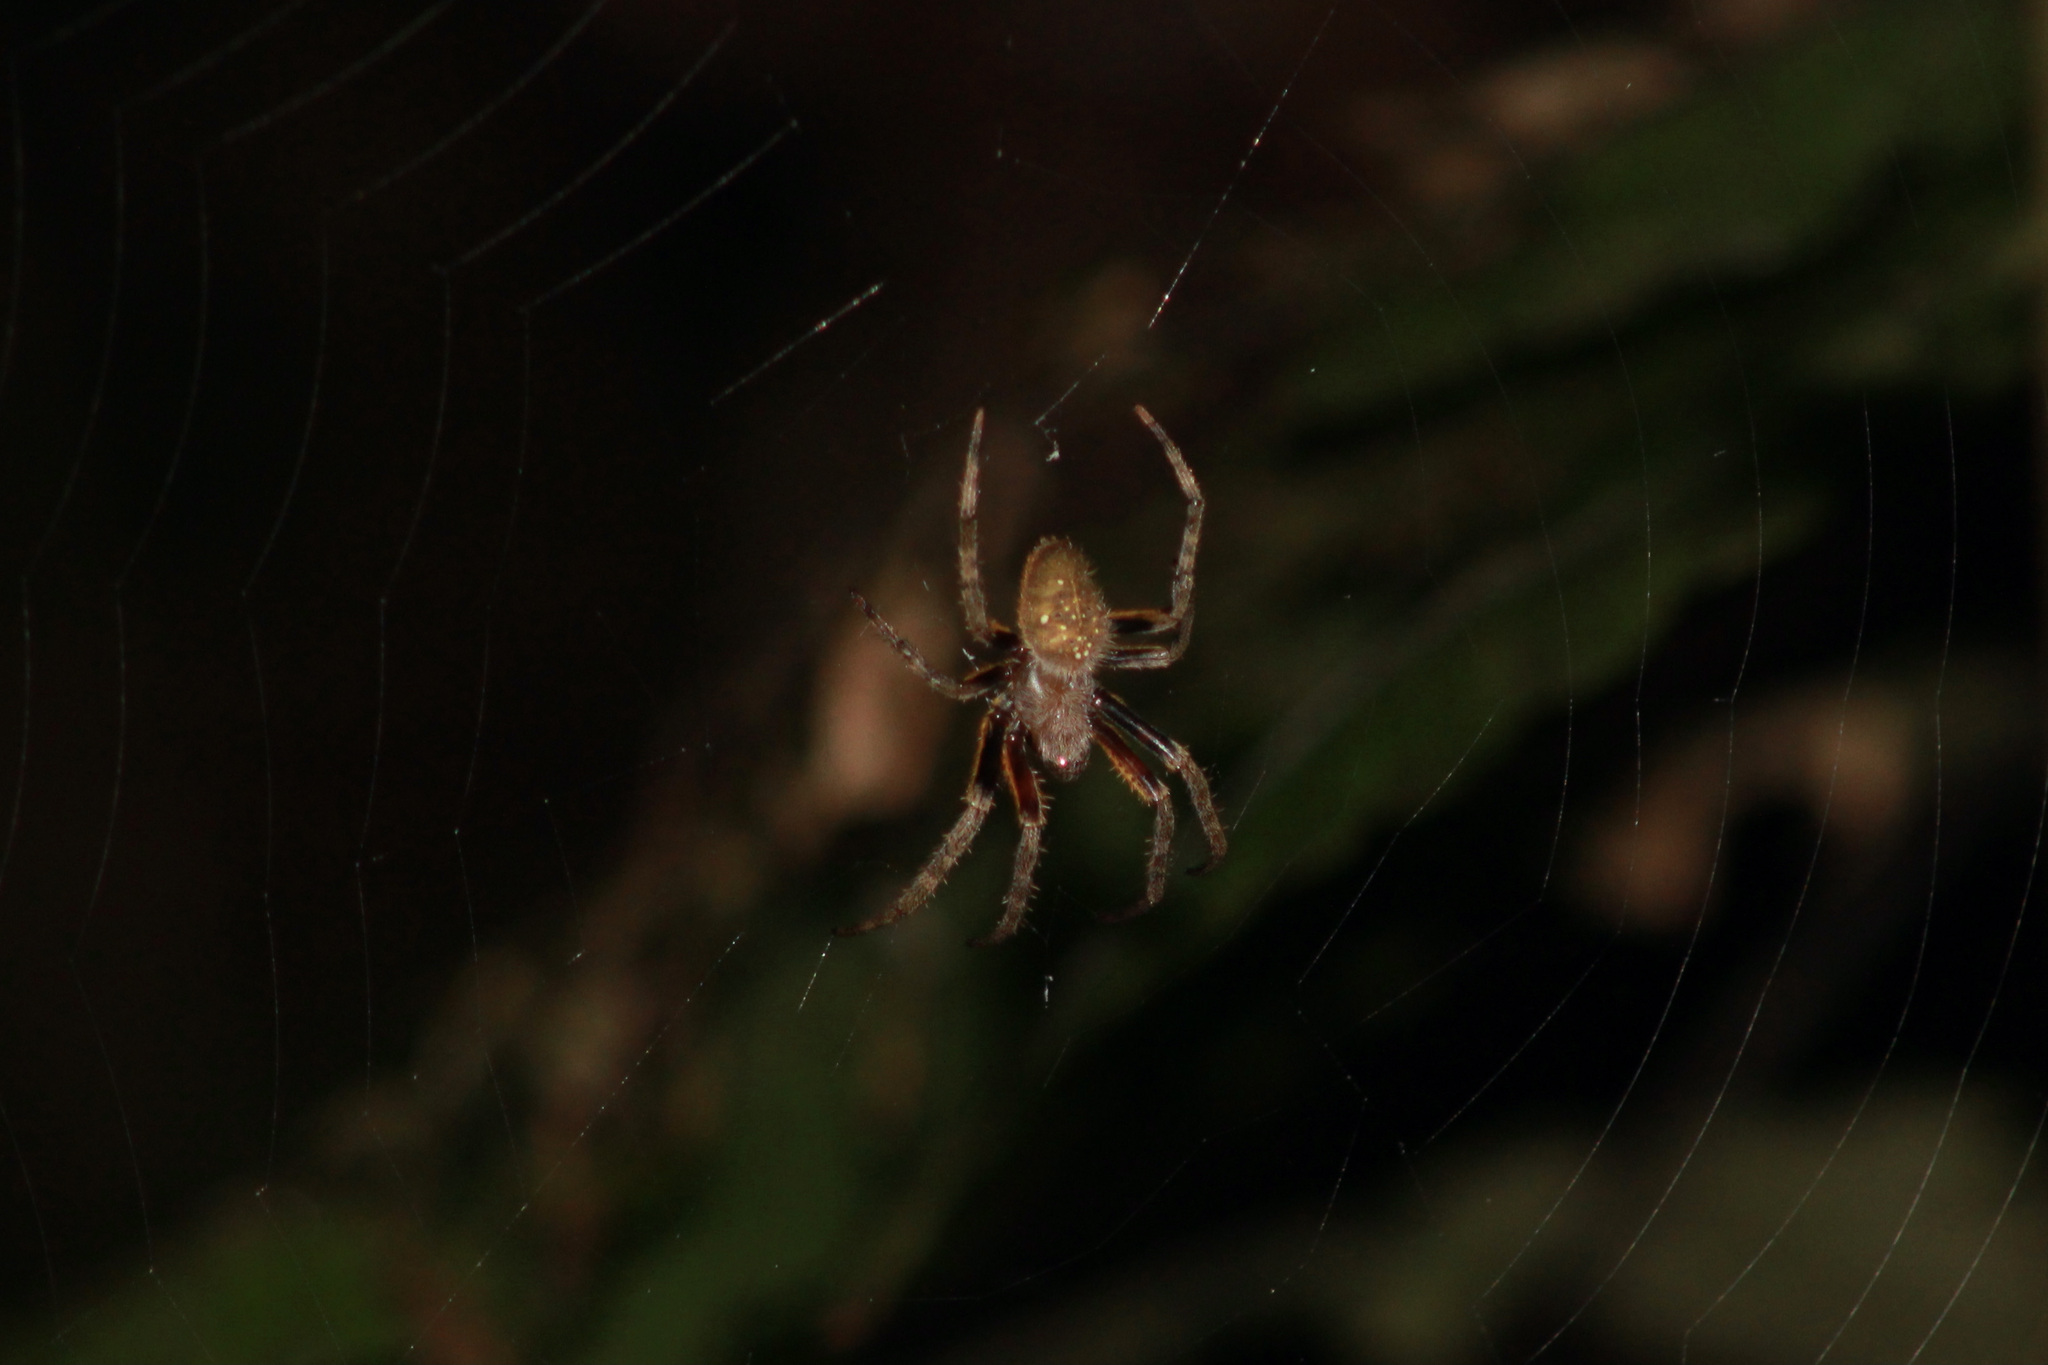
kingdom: Animalia
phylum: Arthropoda
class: Arachnida
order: Araneae
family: Araneidae
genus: Eriophora
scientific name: Eriophora fuliginea
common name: Orb weavers
